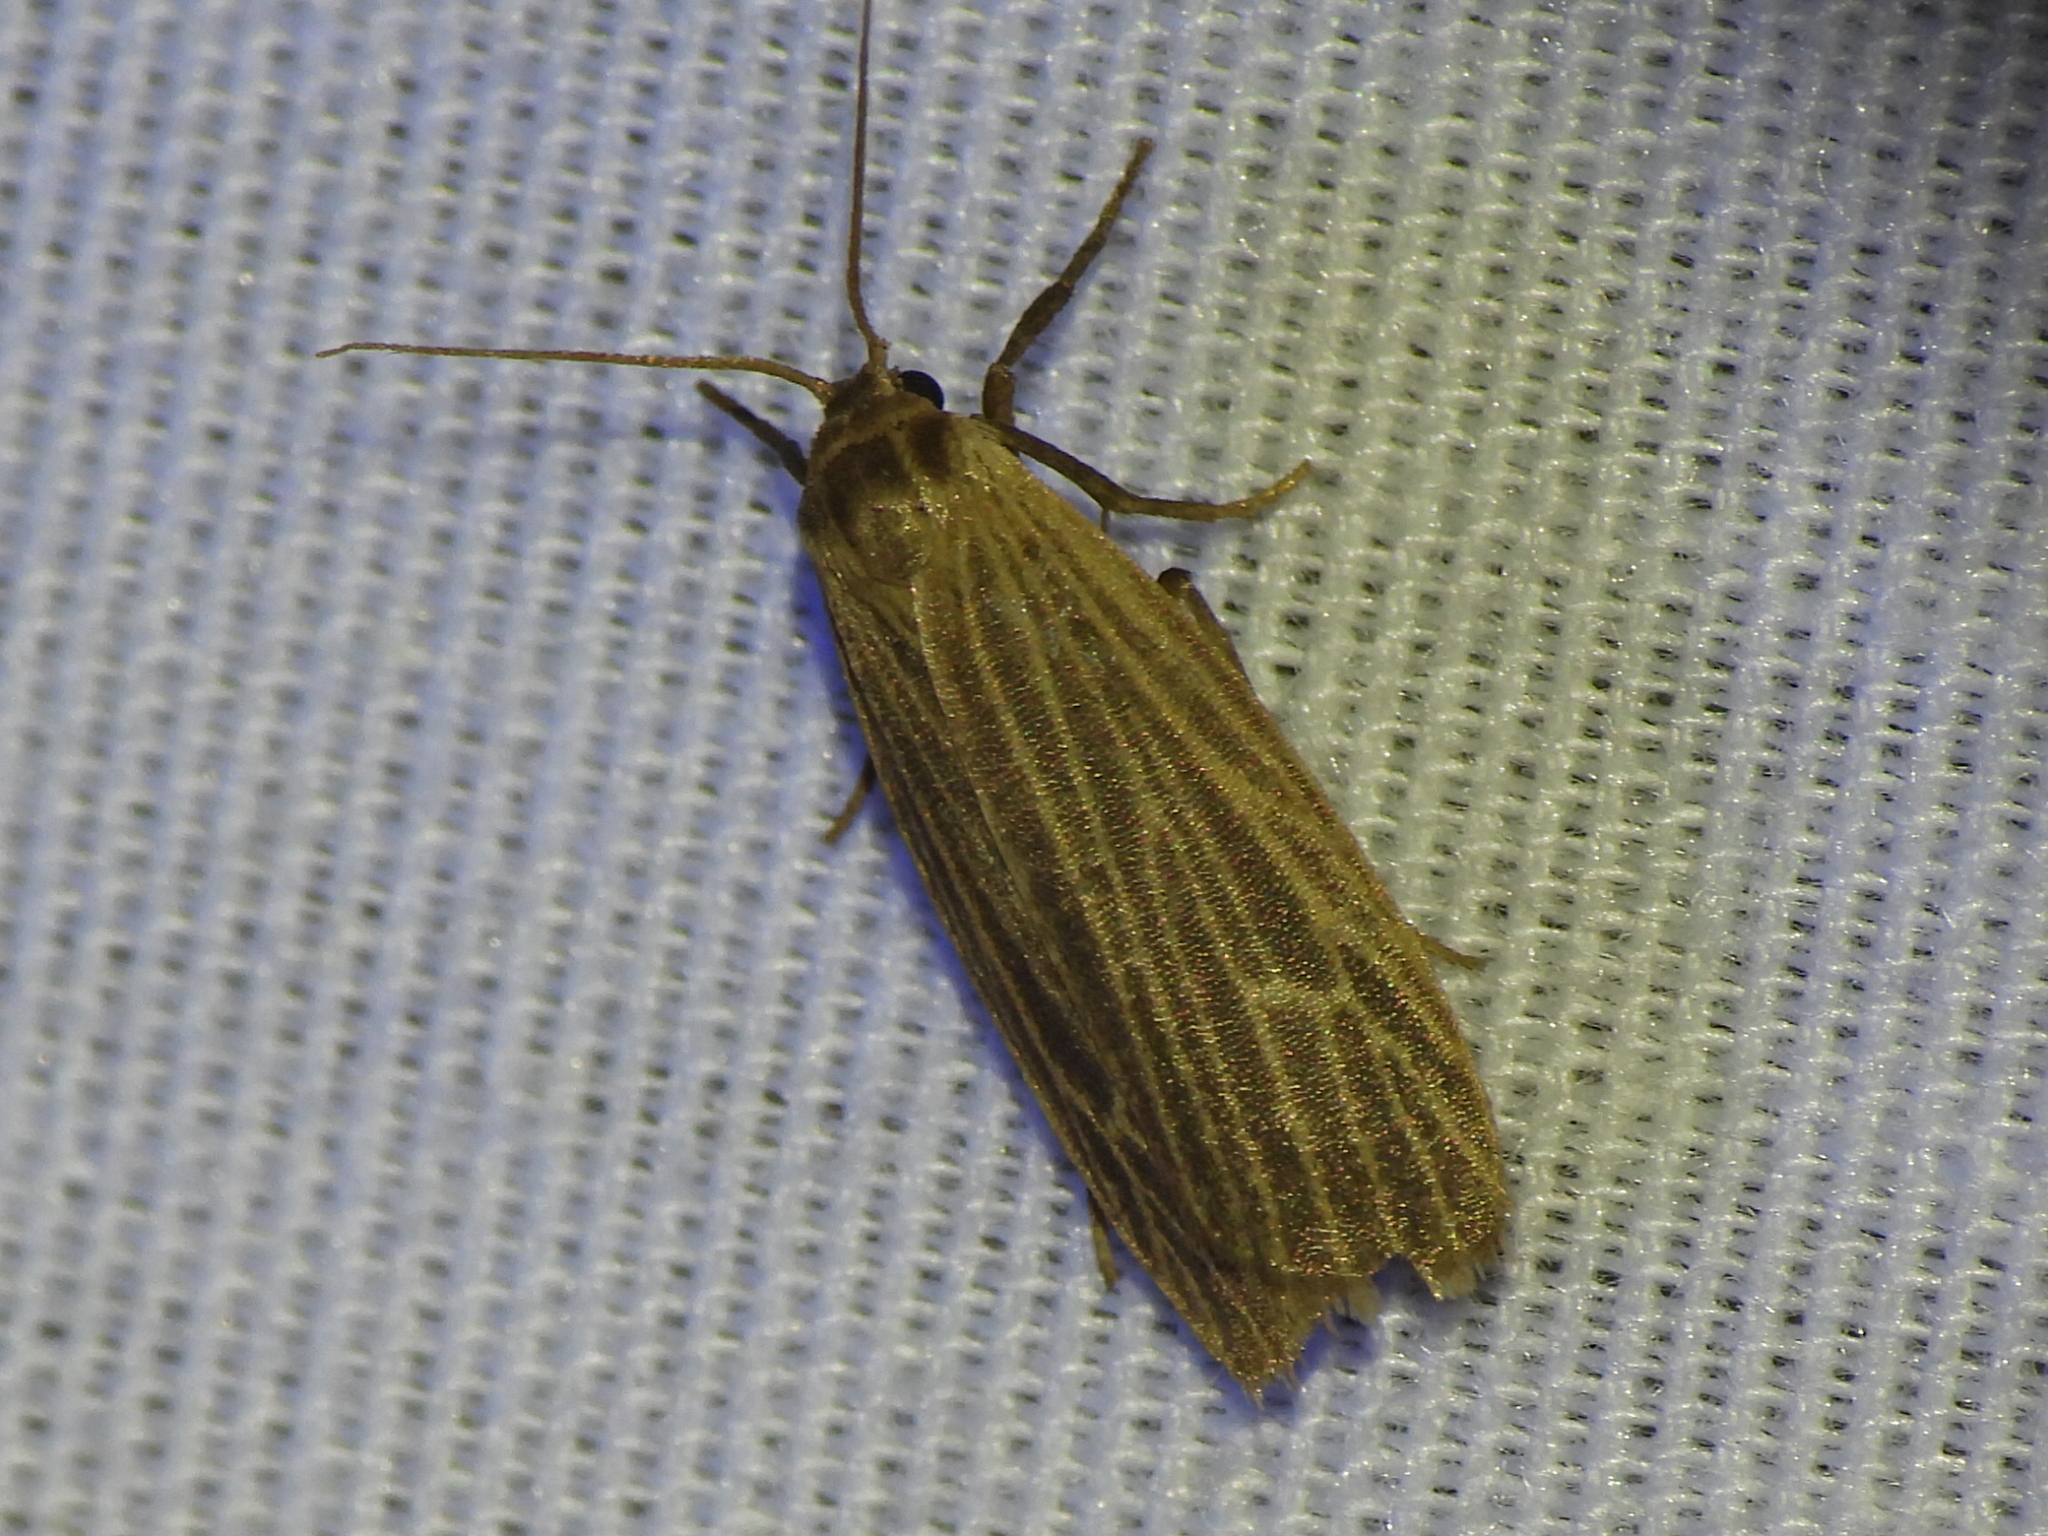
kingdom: Animalia
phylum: Arthropoda
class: Insecta
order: Lepidoptera
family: Erebidae
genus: Crambidia
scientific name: Crambidia pallida
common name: Pale lichen moth
